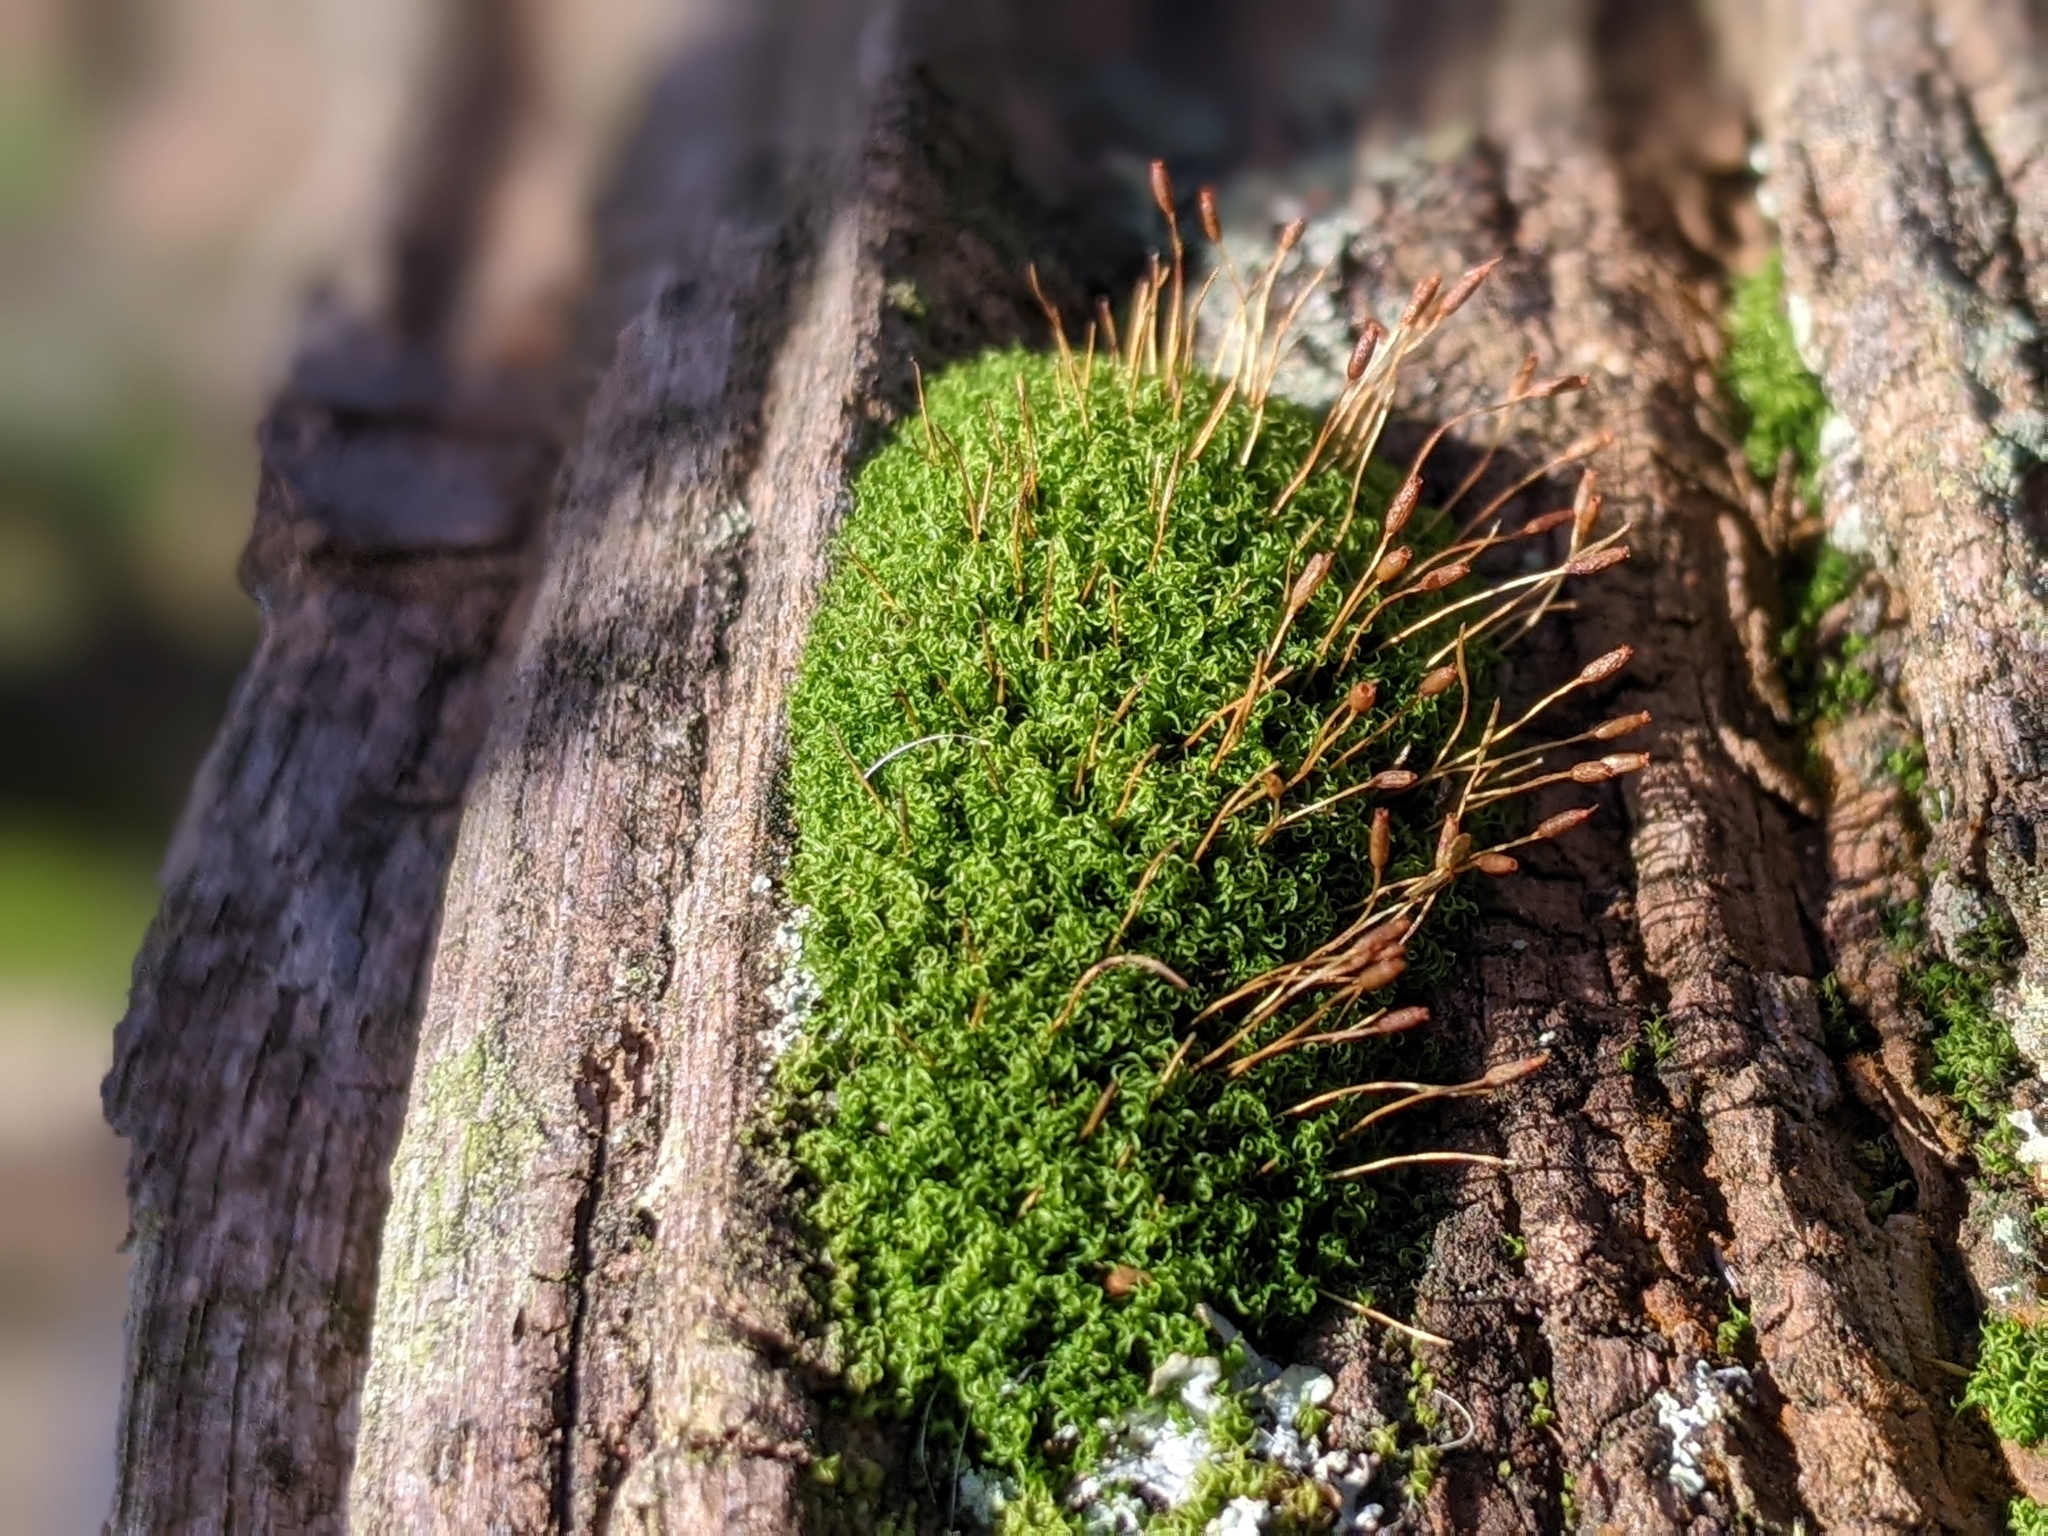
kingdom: Plantae
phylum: Bryophyta
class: Bryopsida
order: Dicranales
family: Rhabdoweisiaceae
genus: Dicranoweisia
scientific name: Dicranoweisia cirrata
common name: Common pincushion
